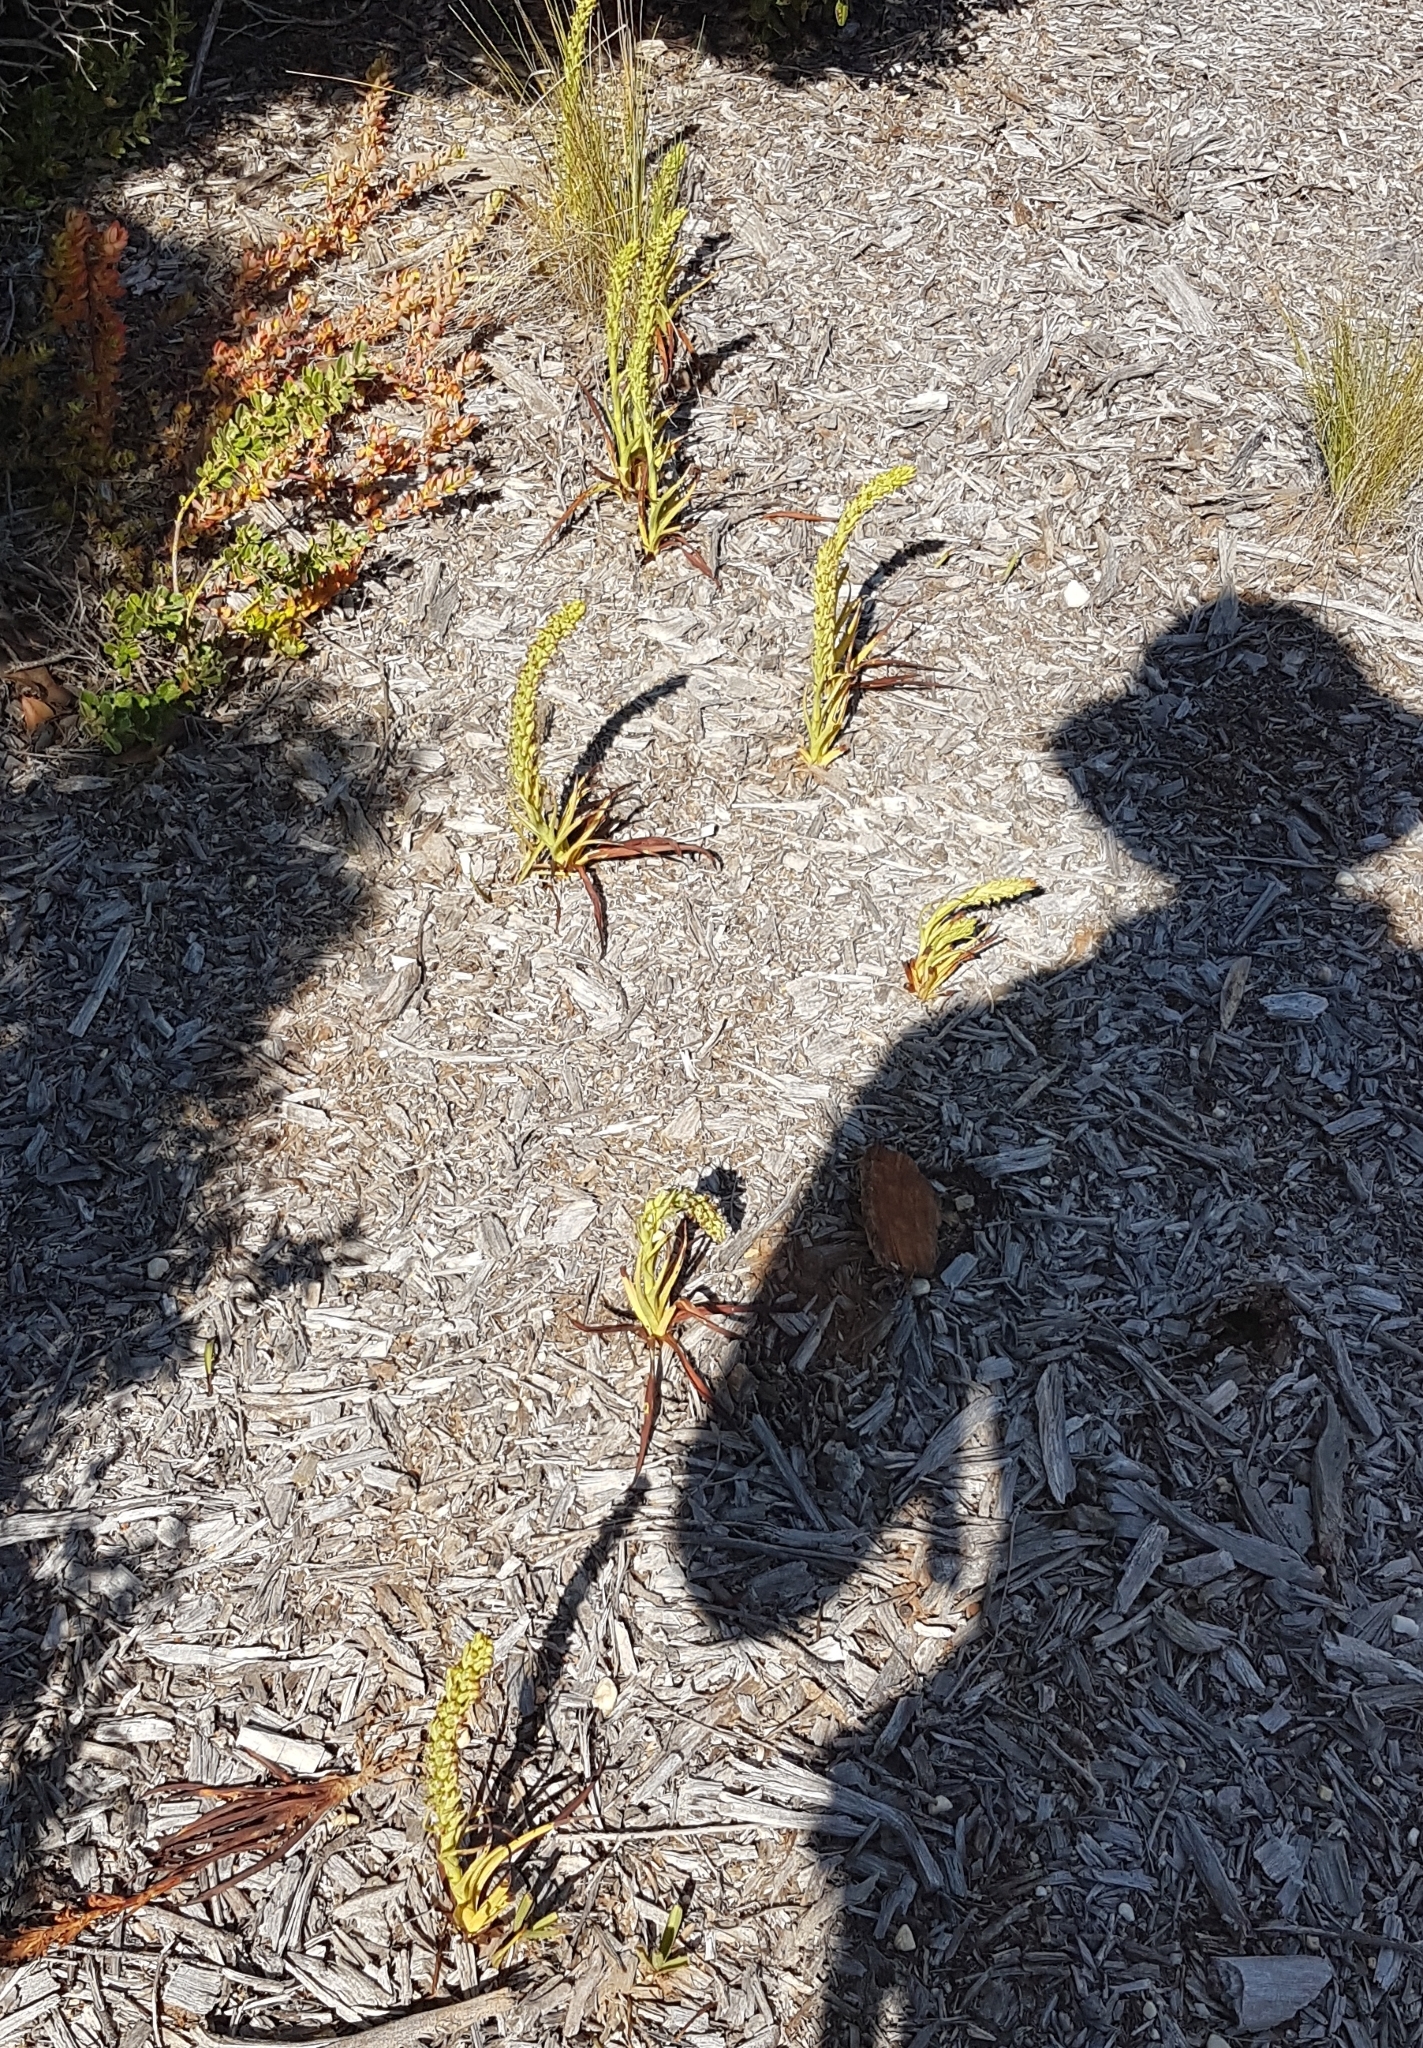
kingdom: Plantae
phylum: Tracheophyta
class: Liliopsida
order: Asparagales
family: Orchidaceae
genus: Disa
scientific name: Disa bracteata
